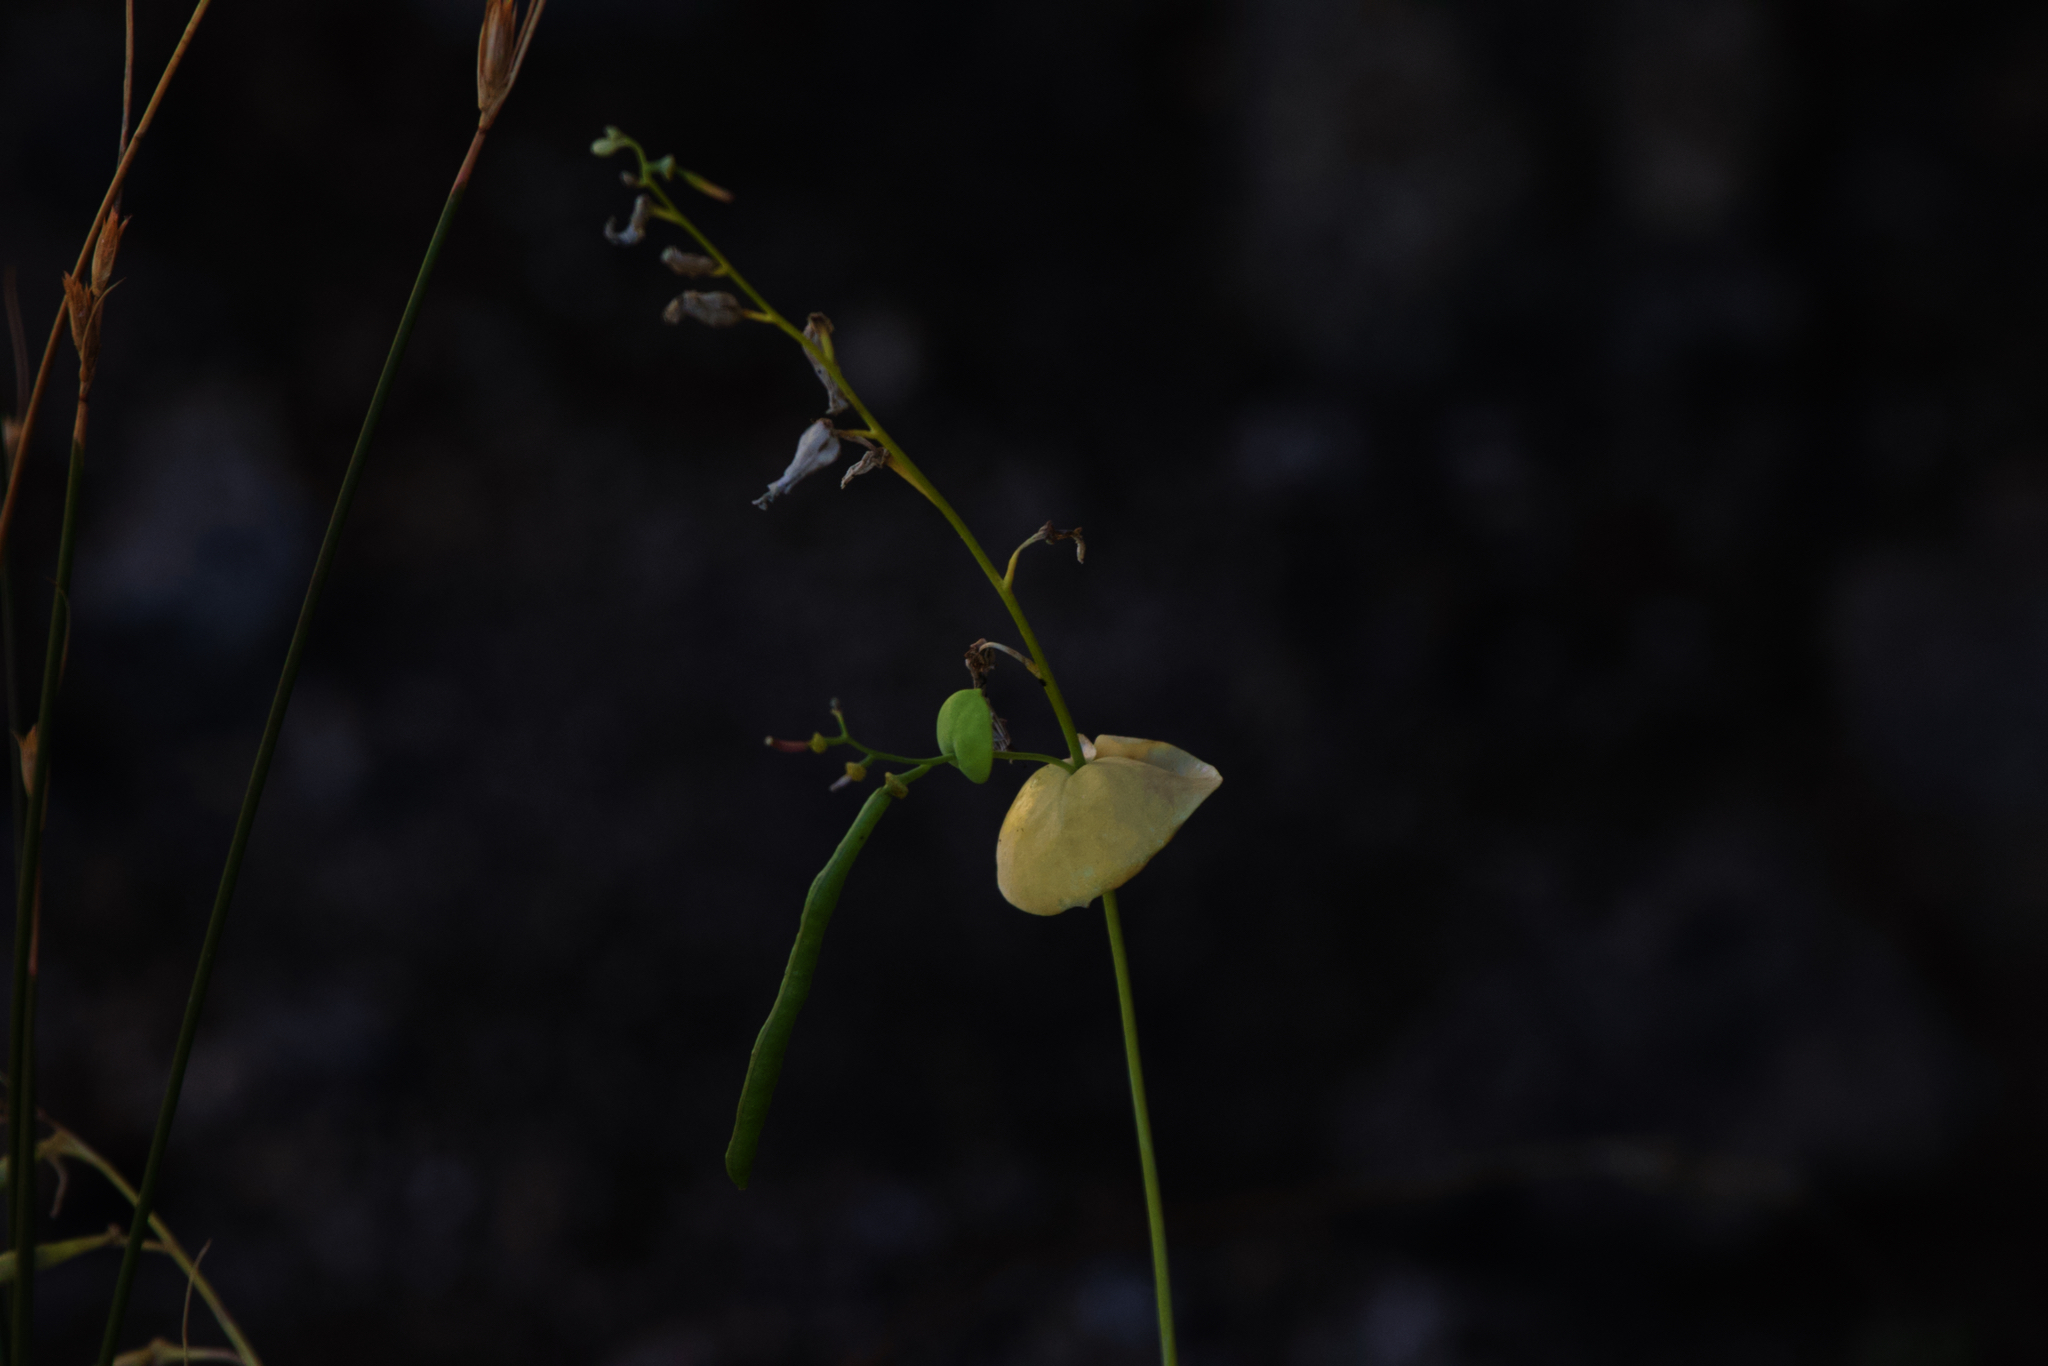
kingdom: Plantae
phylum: Tracheophyta
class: Magnoliopsida
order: Brassicales
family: Brassicaceae
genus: Streptanthus
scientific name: Streptanthus tortuosus
